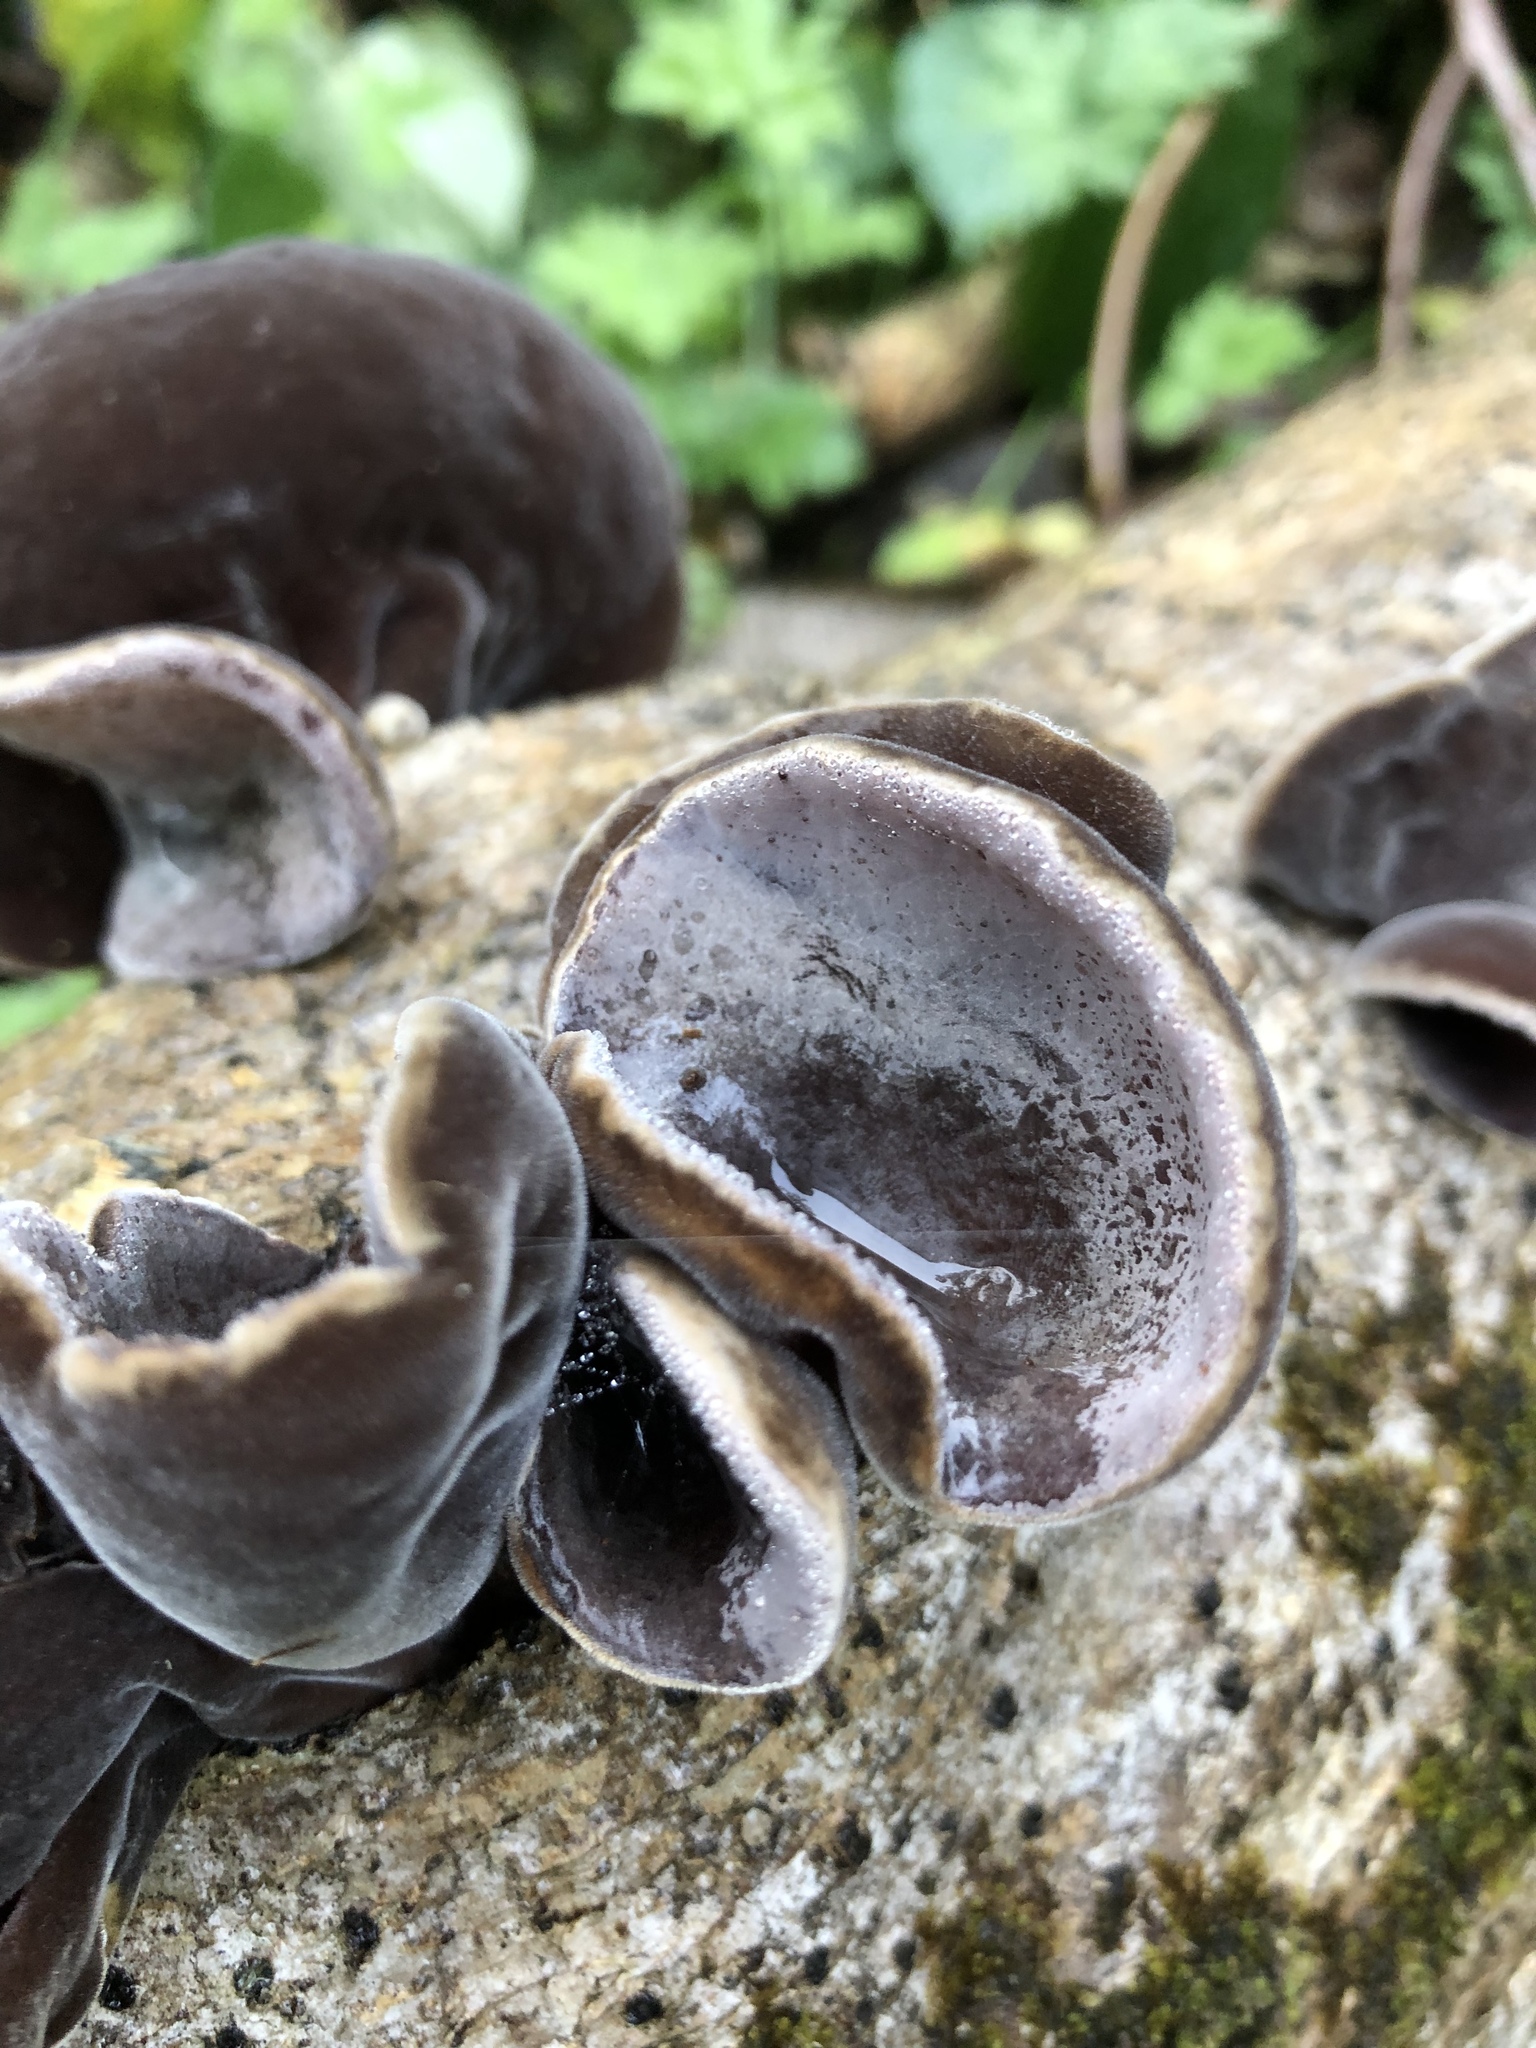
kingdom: Fungi
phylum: Basidiomycota
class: Agaricomycetes
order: Auriculariales
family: Auriculariaceae
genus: Auricularia
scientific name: Auricularia cornea
